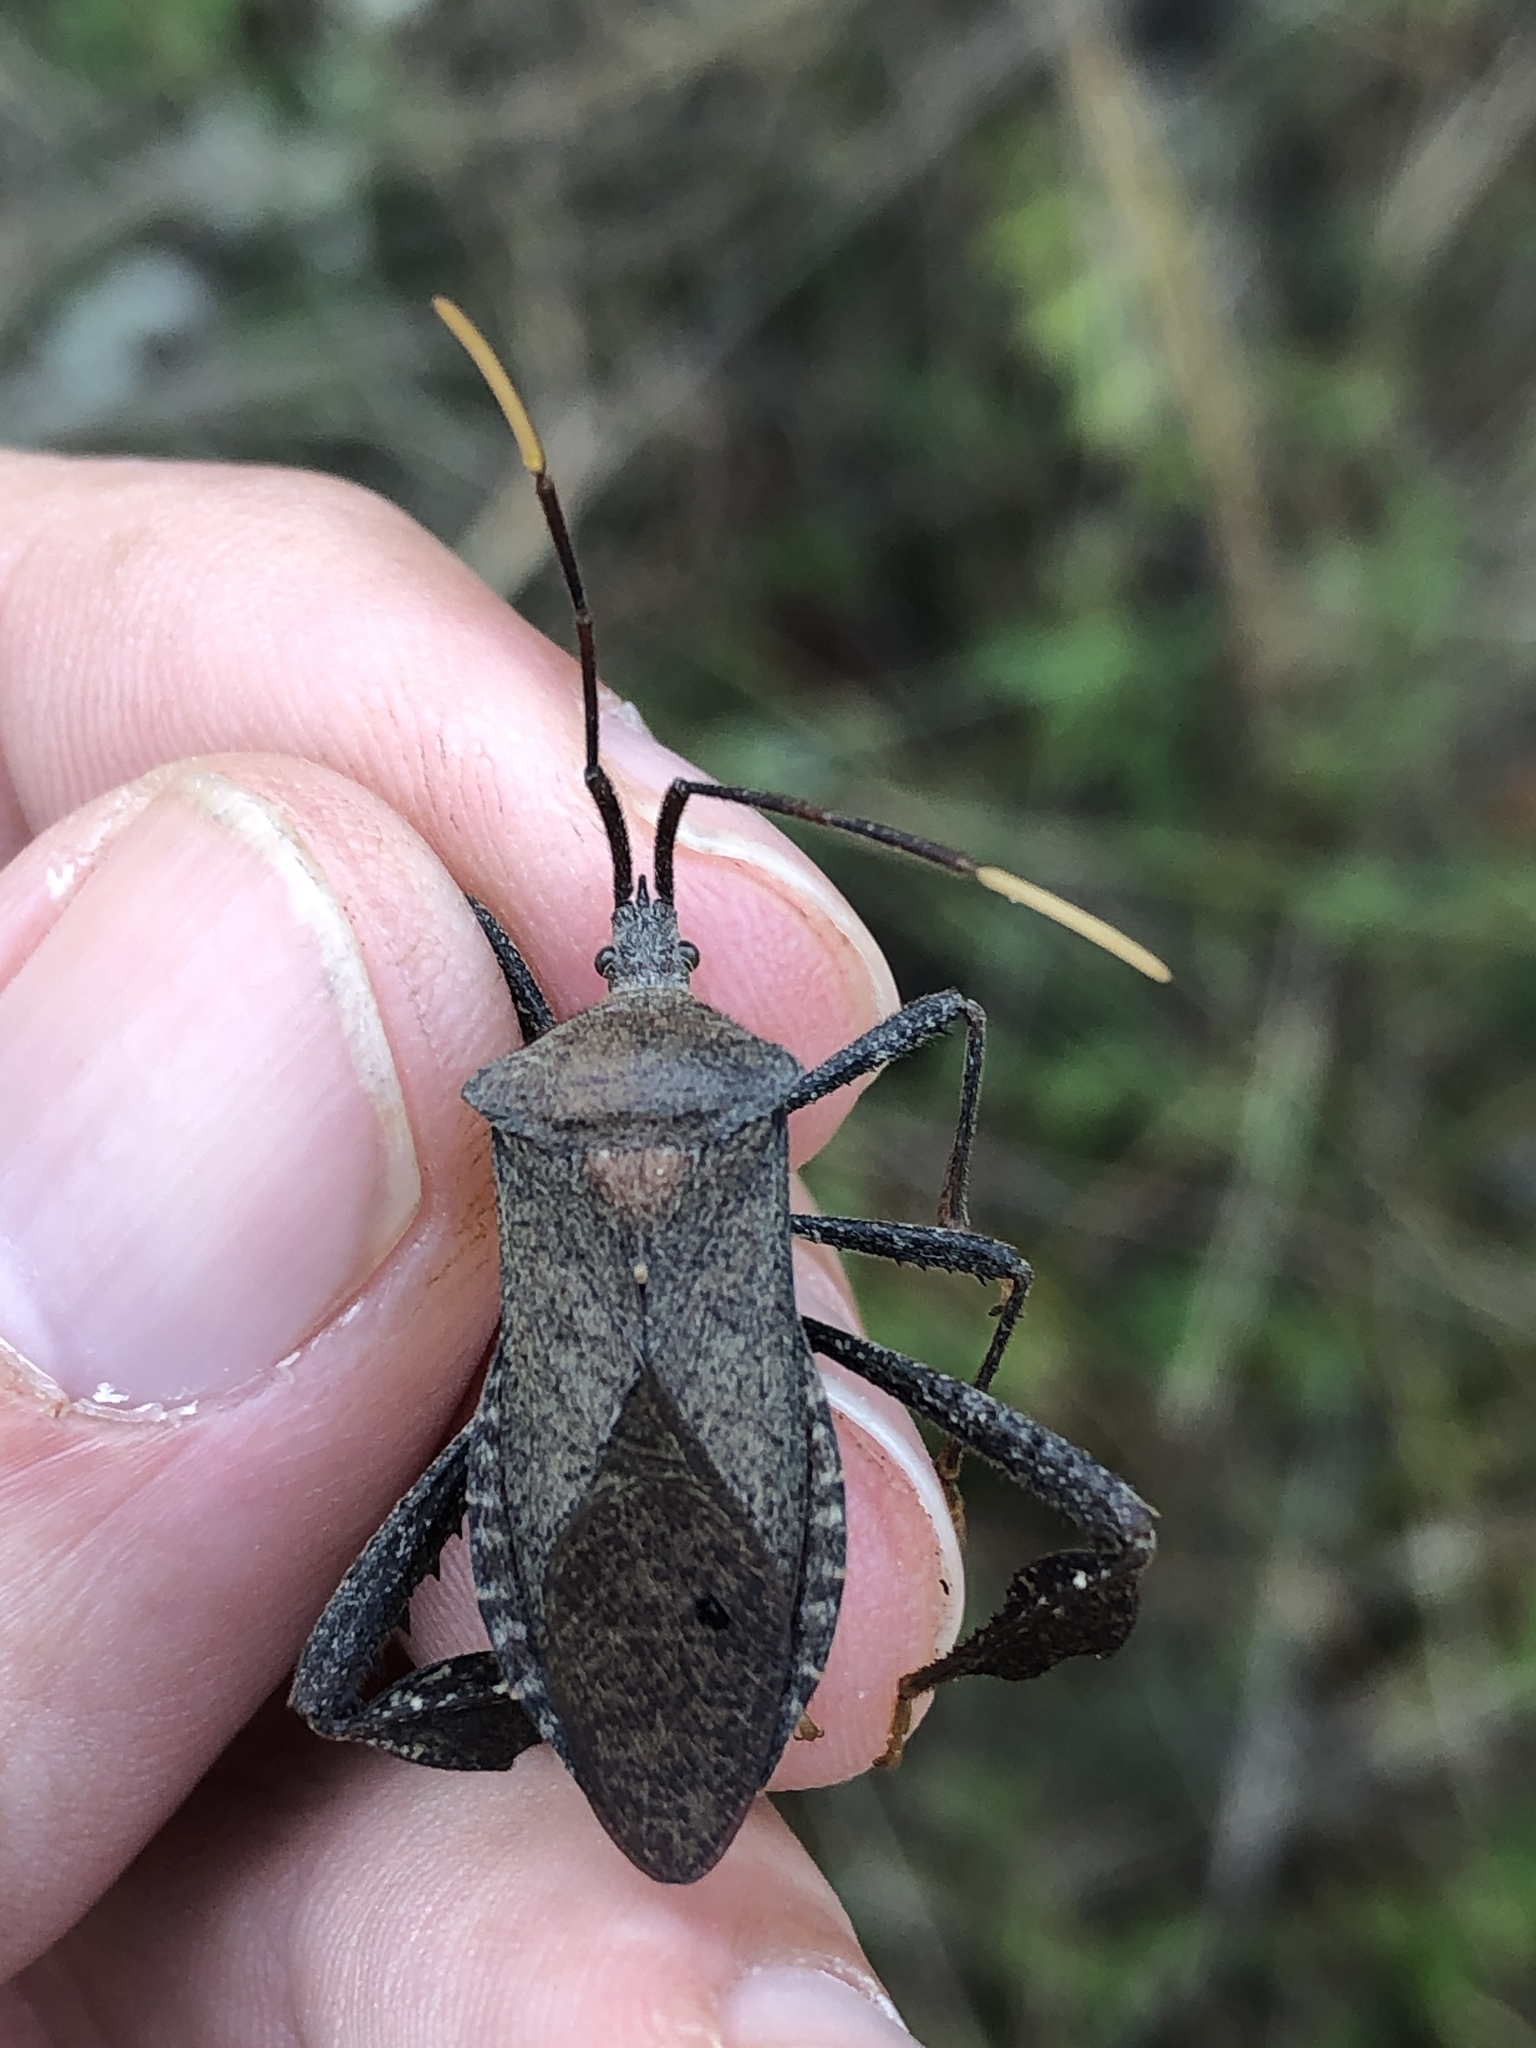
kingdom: Animalia
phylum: Arthropoda
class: Insecta
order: Hemiptera
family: Coreidae
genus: Acanthocephala
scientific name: Acanthocephala terminalis
